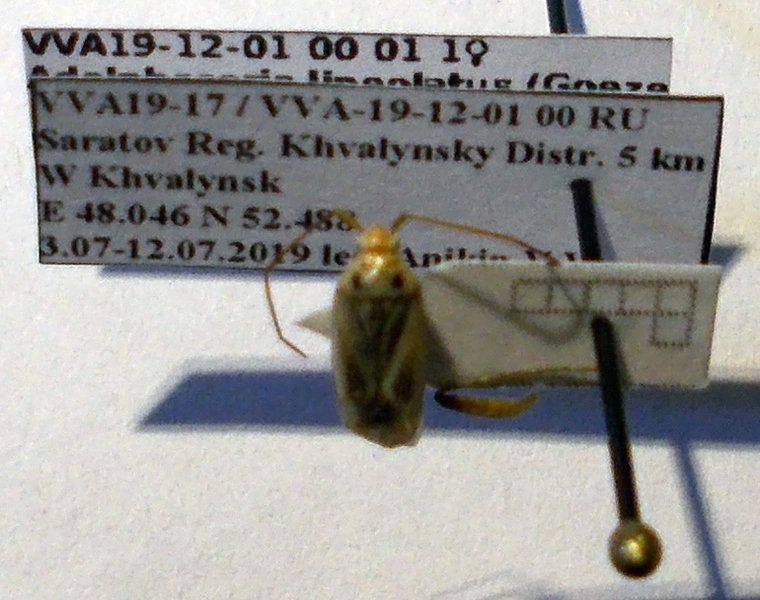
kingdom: Animalia
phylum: Arthropoda
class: Insecta
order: Hemiptera
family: Miridae
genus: Adelphocoris
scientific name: Adelphocoris lineolatus
